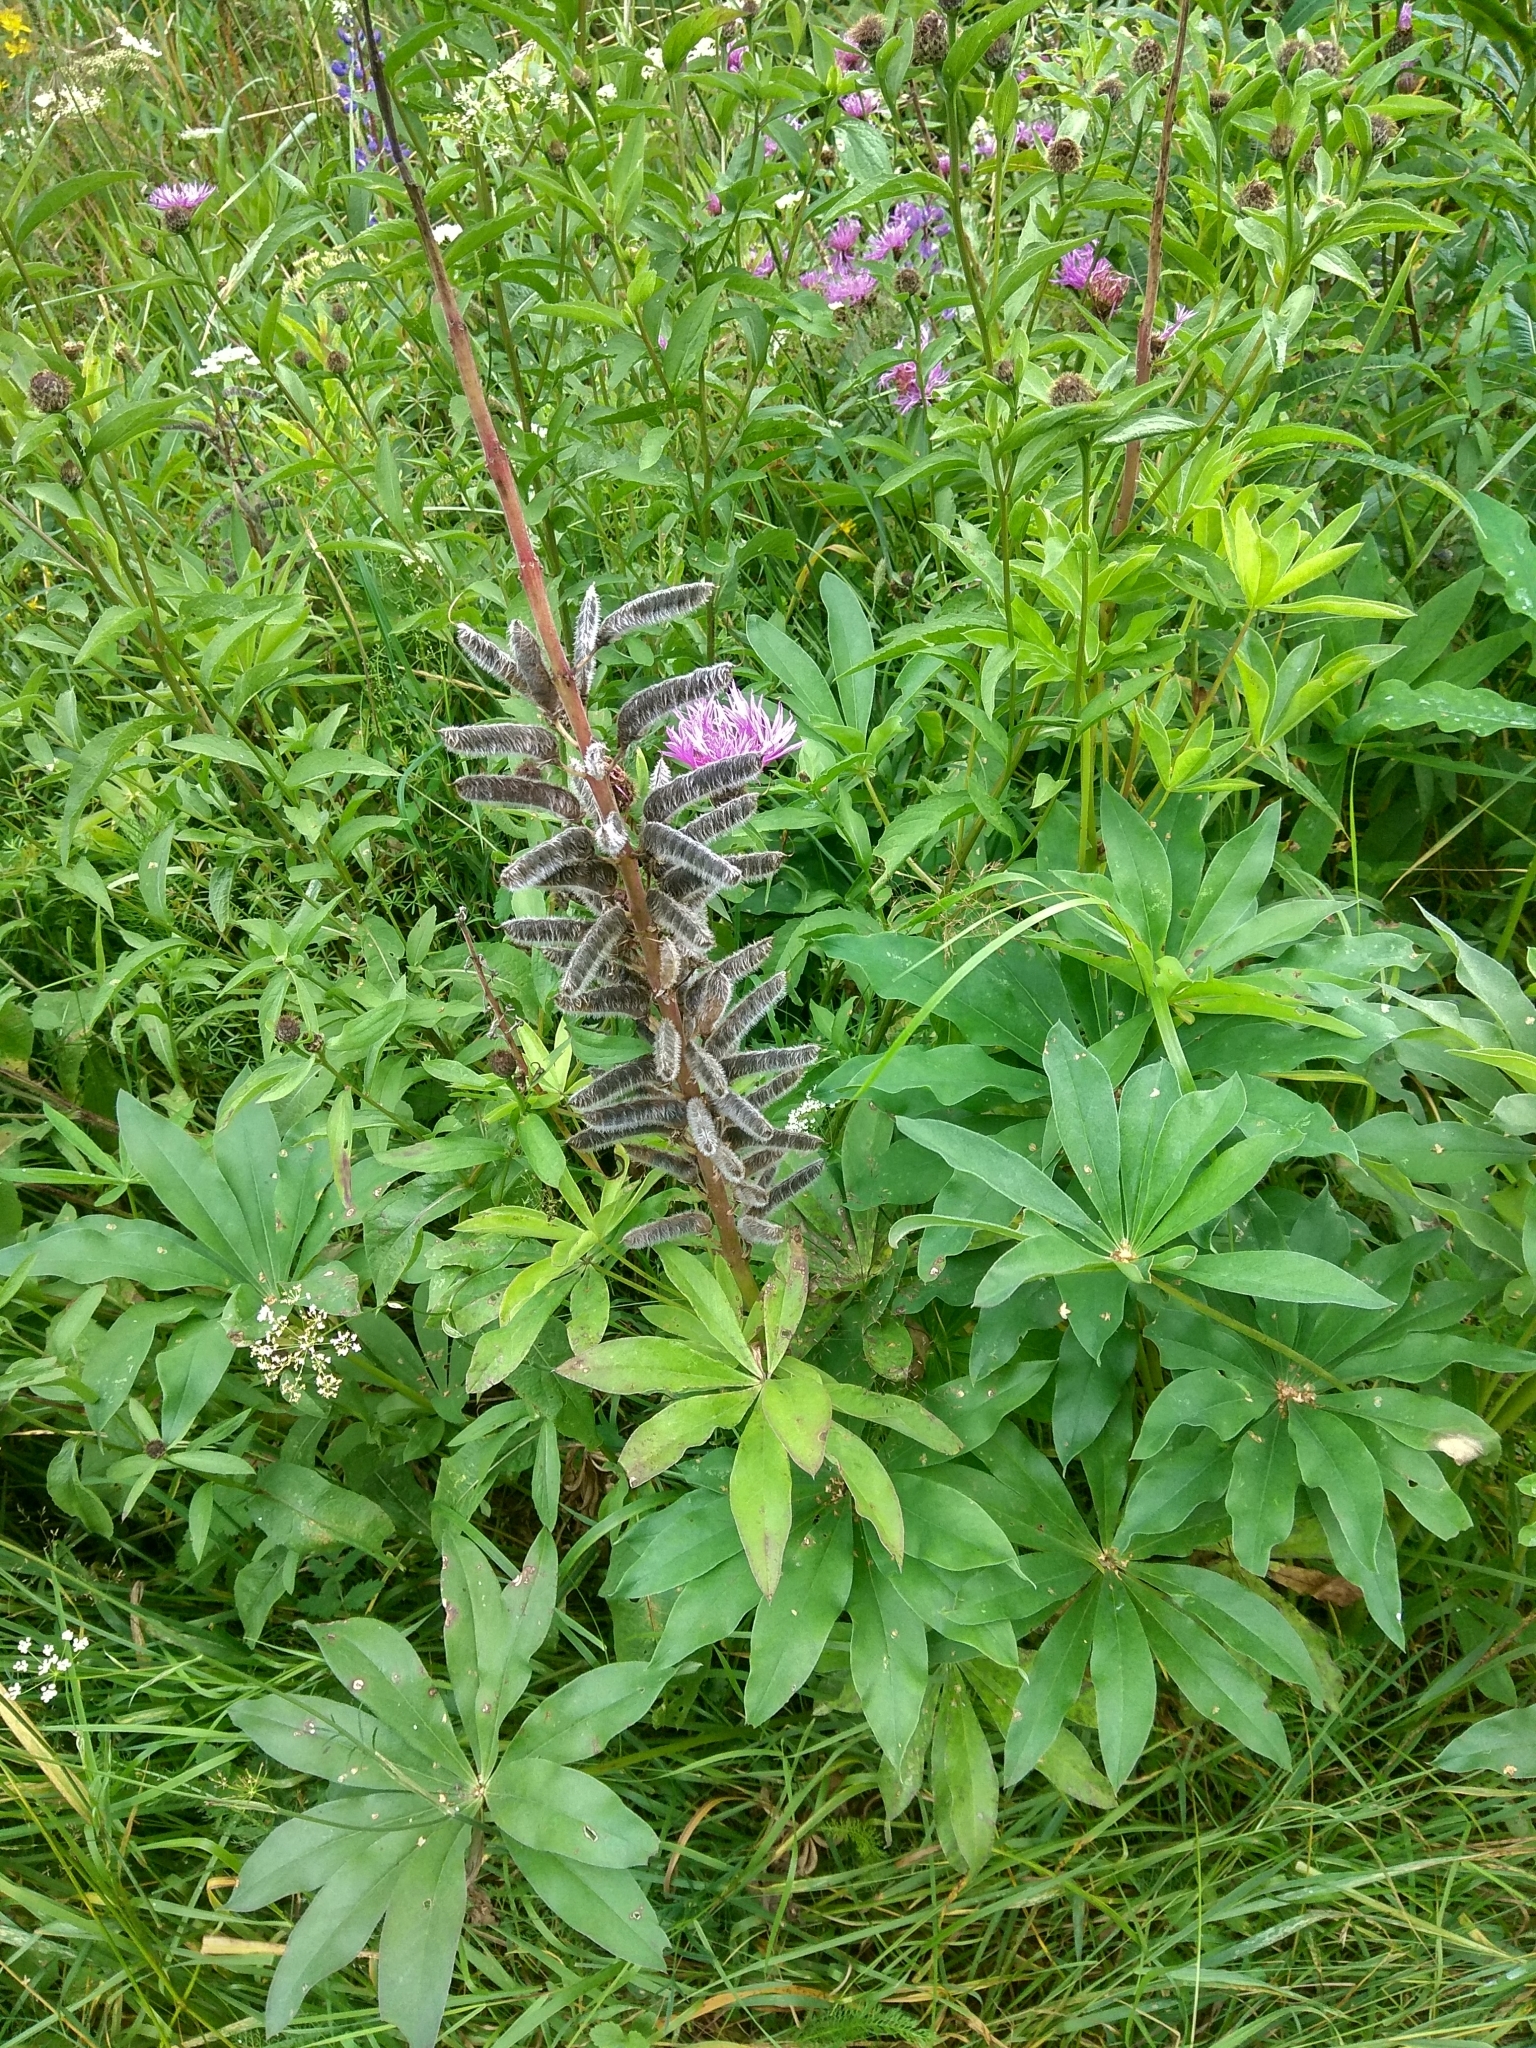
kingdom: Plantae
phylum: Tracheophyta
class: Magnoliopsida
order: Fabales
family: Fabaceae
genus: Lupinus
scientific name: Lupinus polyphyllus
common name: Garden lupin
